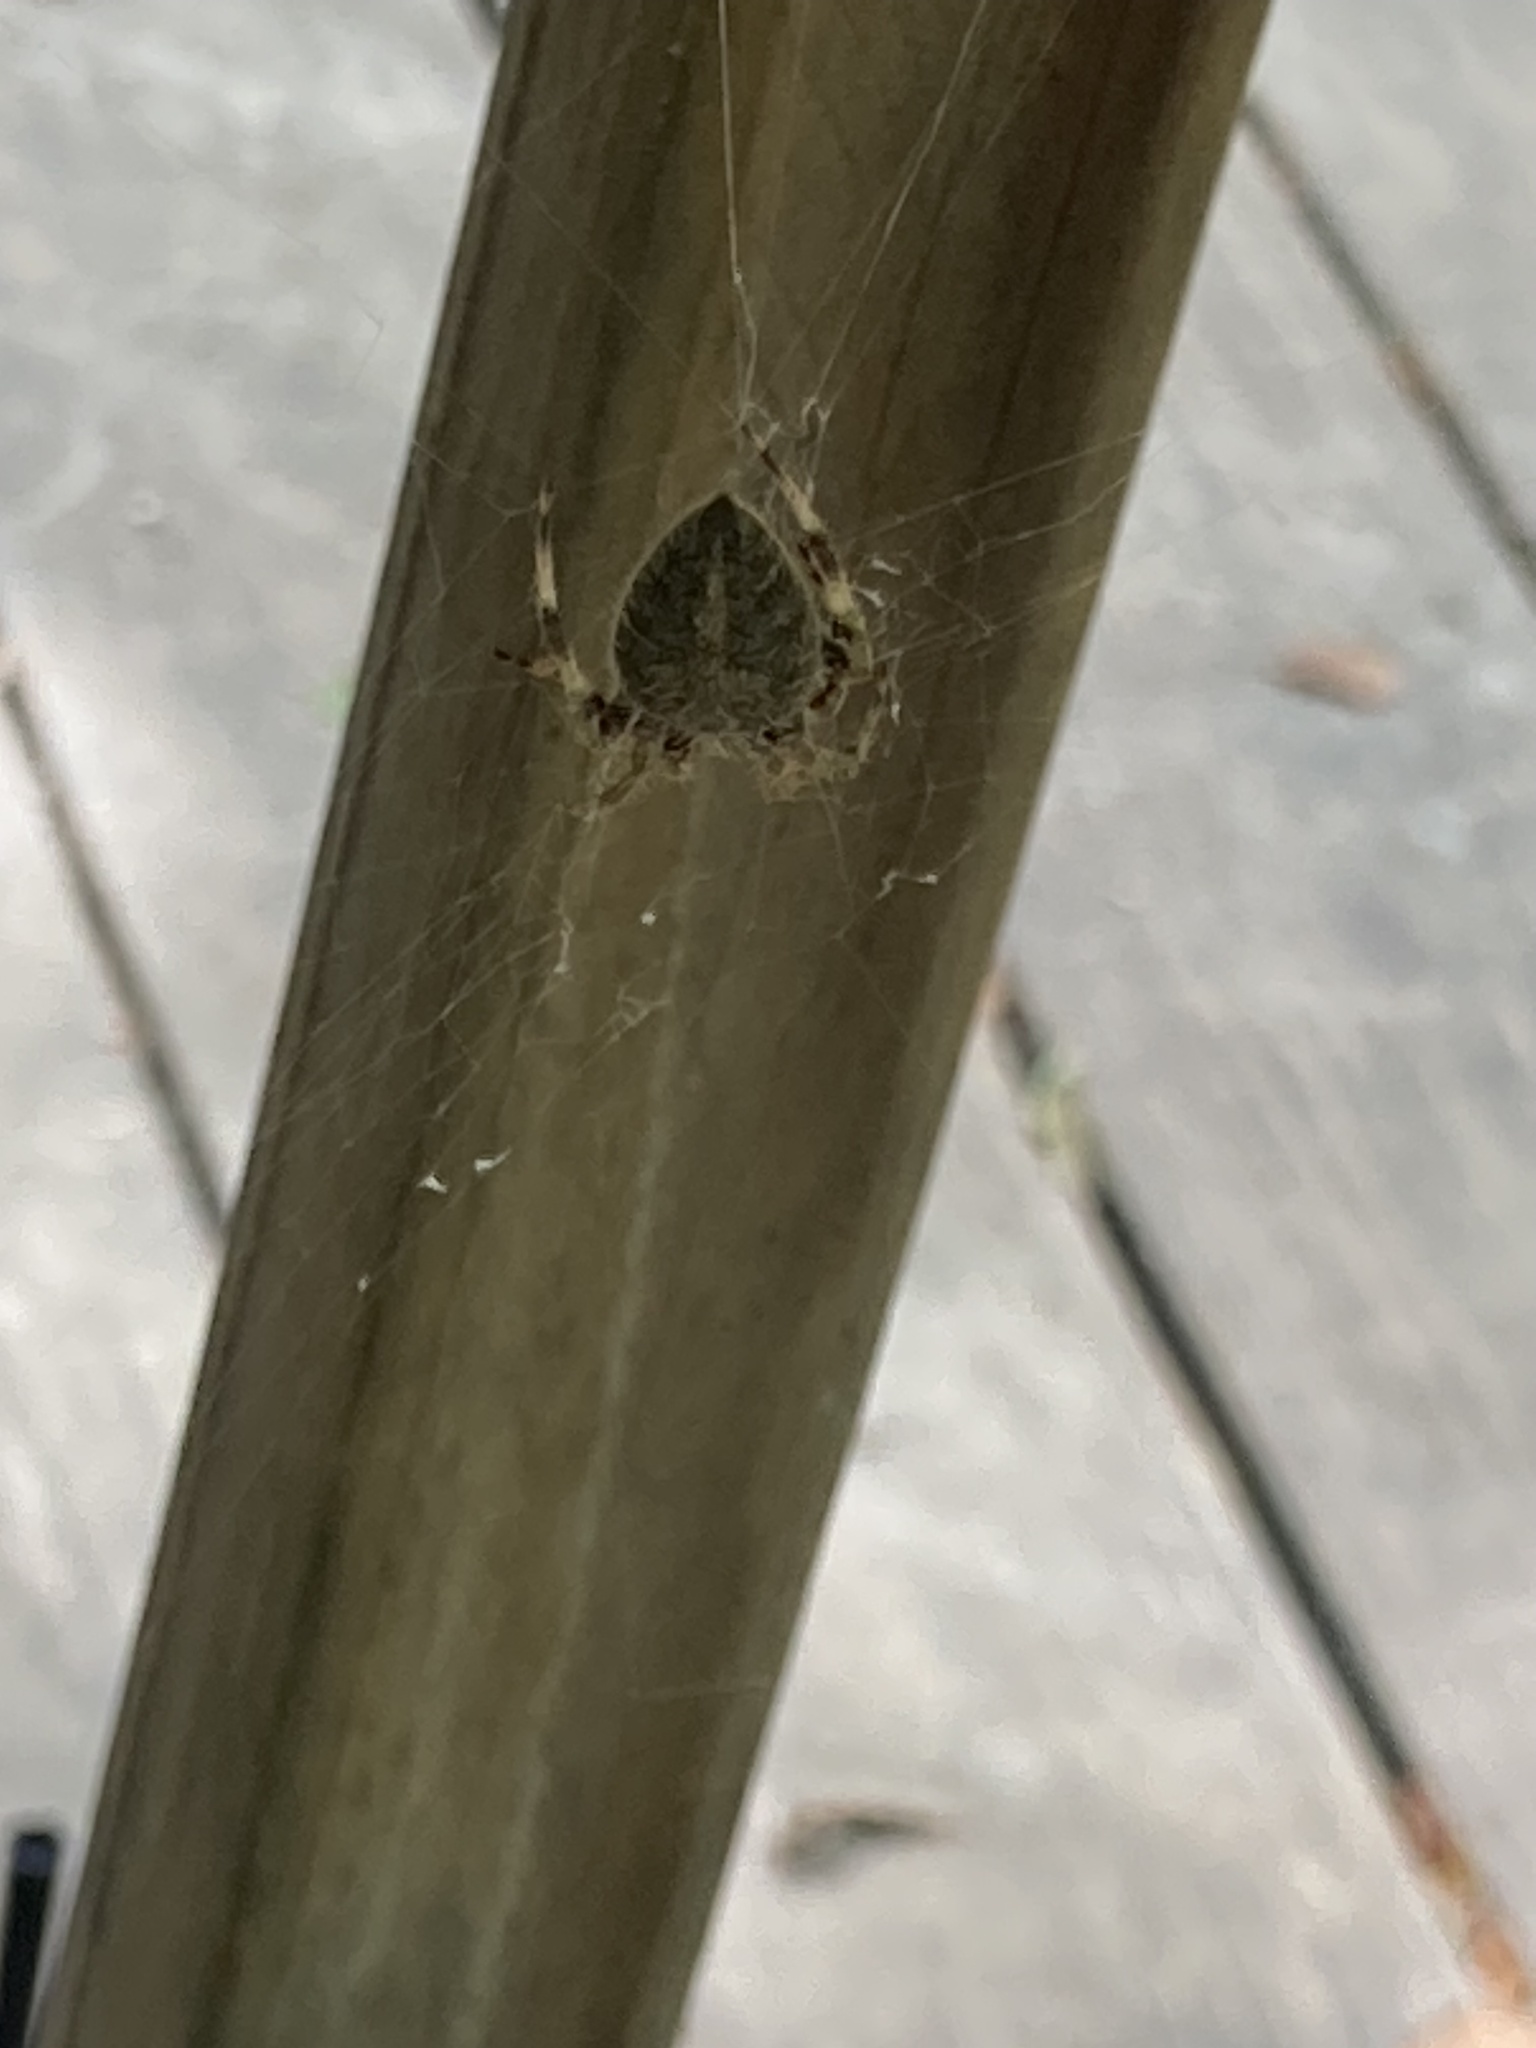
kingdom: Animalia
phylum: Arthropoda
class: Arachnida
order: Araneae
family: Araneidae
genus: Neoscona
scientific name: Neoscona crucifera
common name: Spotted orbweaver
